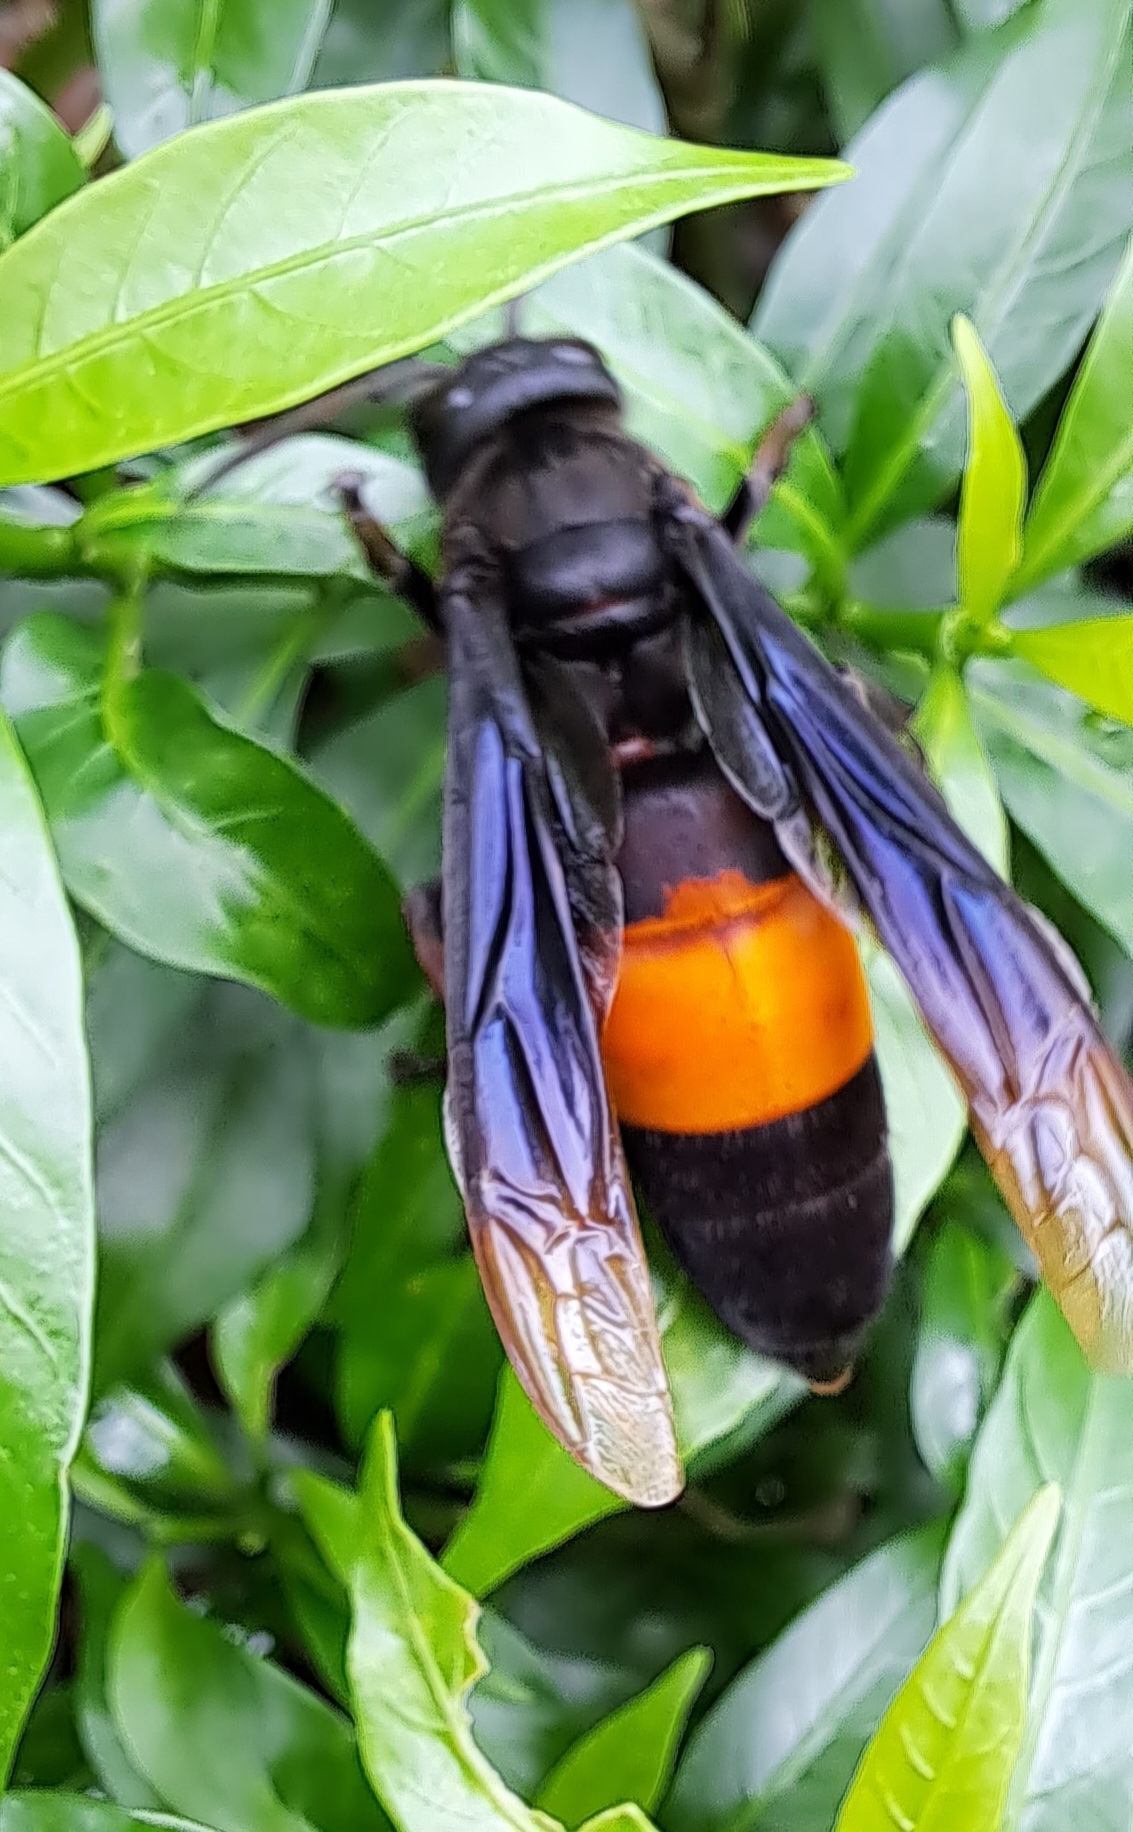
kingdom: Animalia
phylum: Arthropoda
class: Insecta
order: Hymenoptera
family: Vespidae
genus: Vespa
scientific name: Vespa tropica
